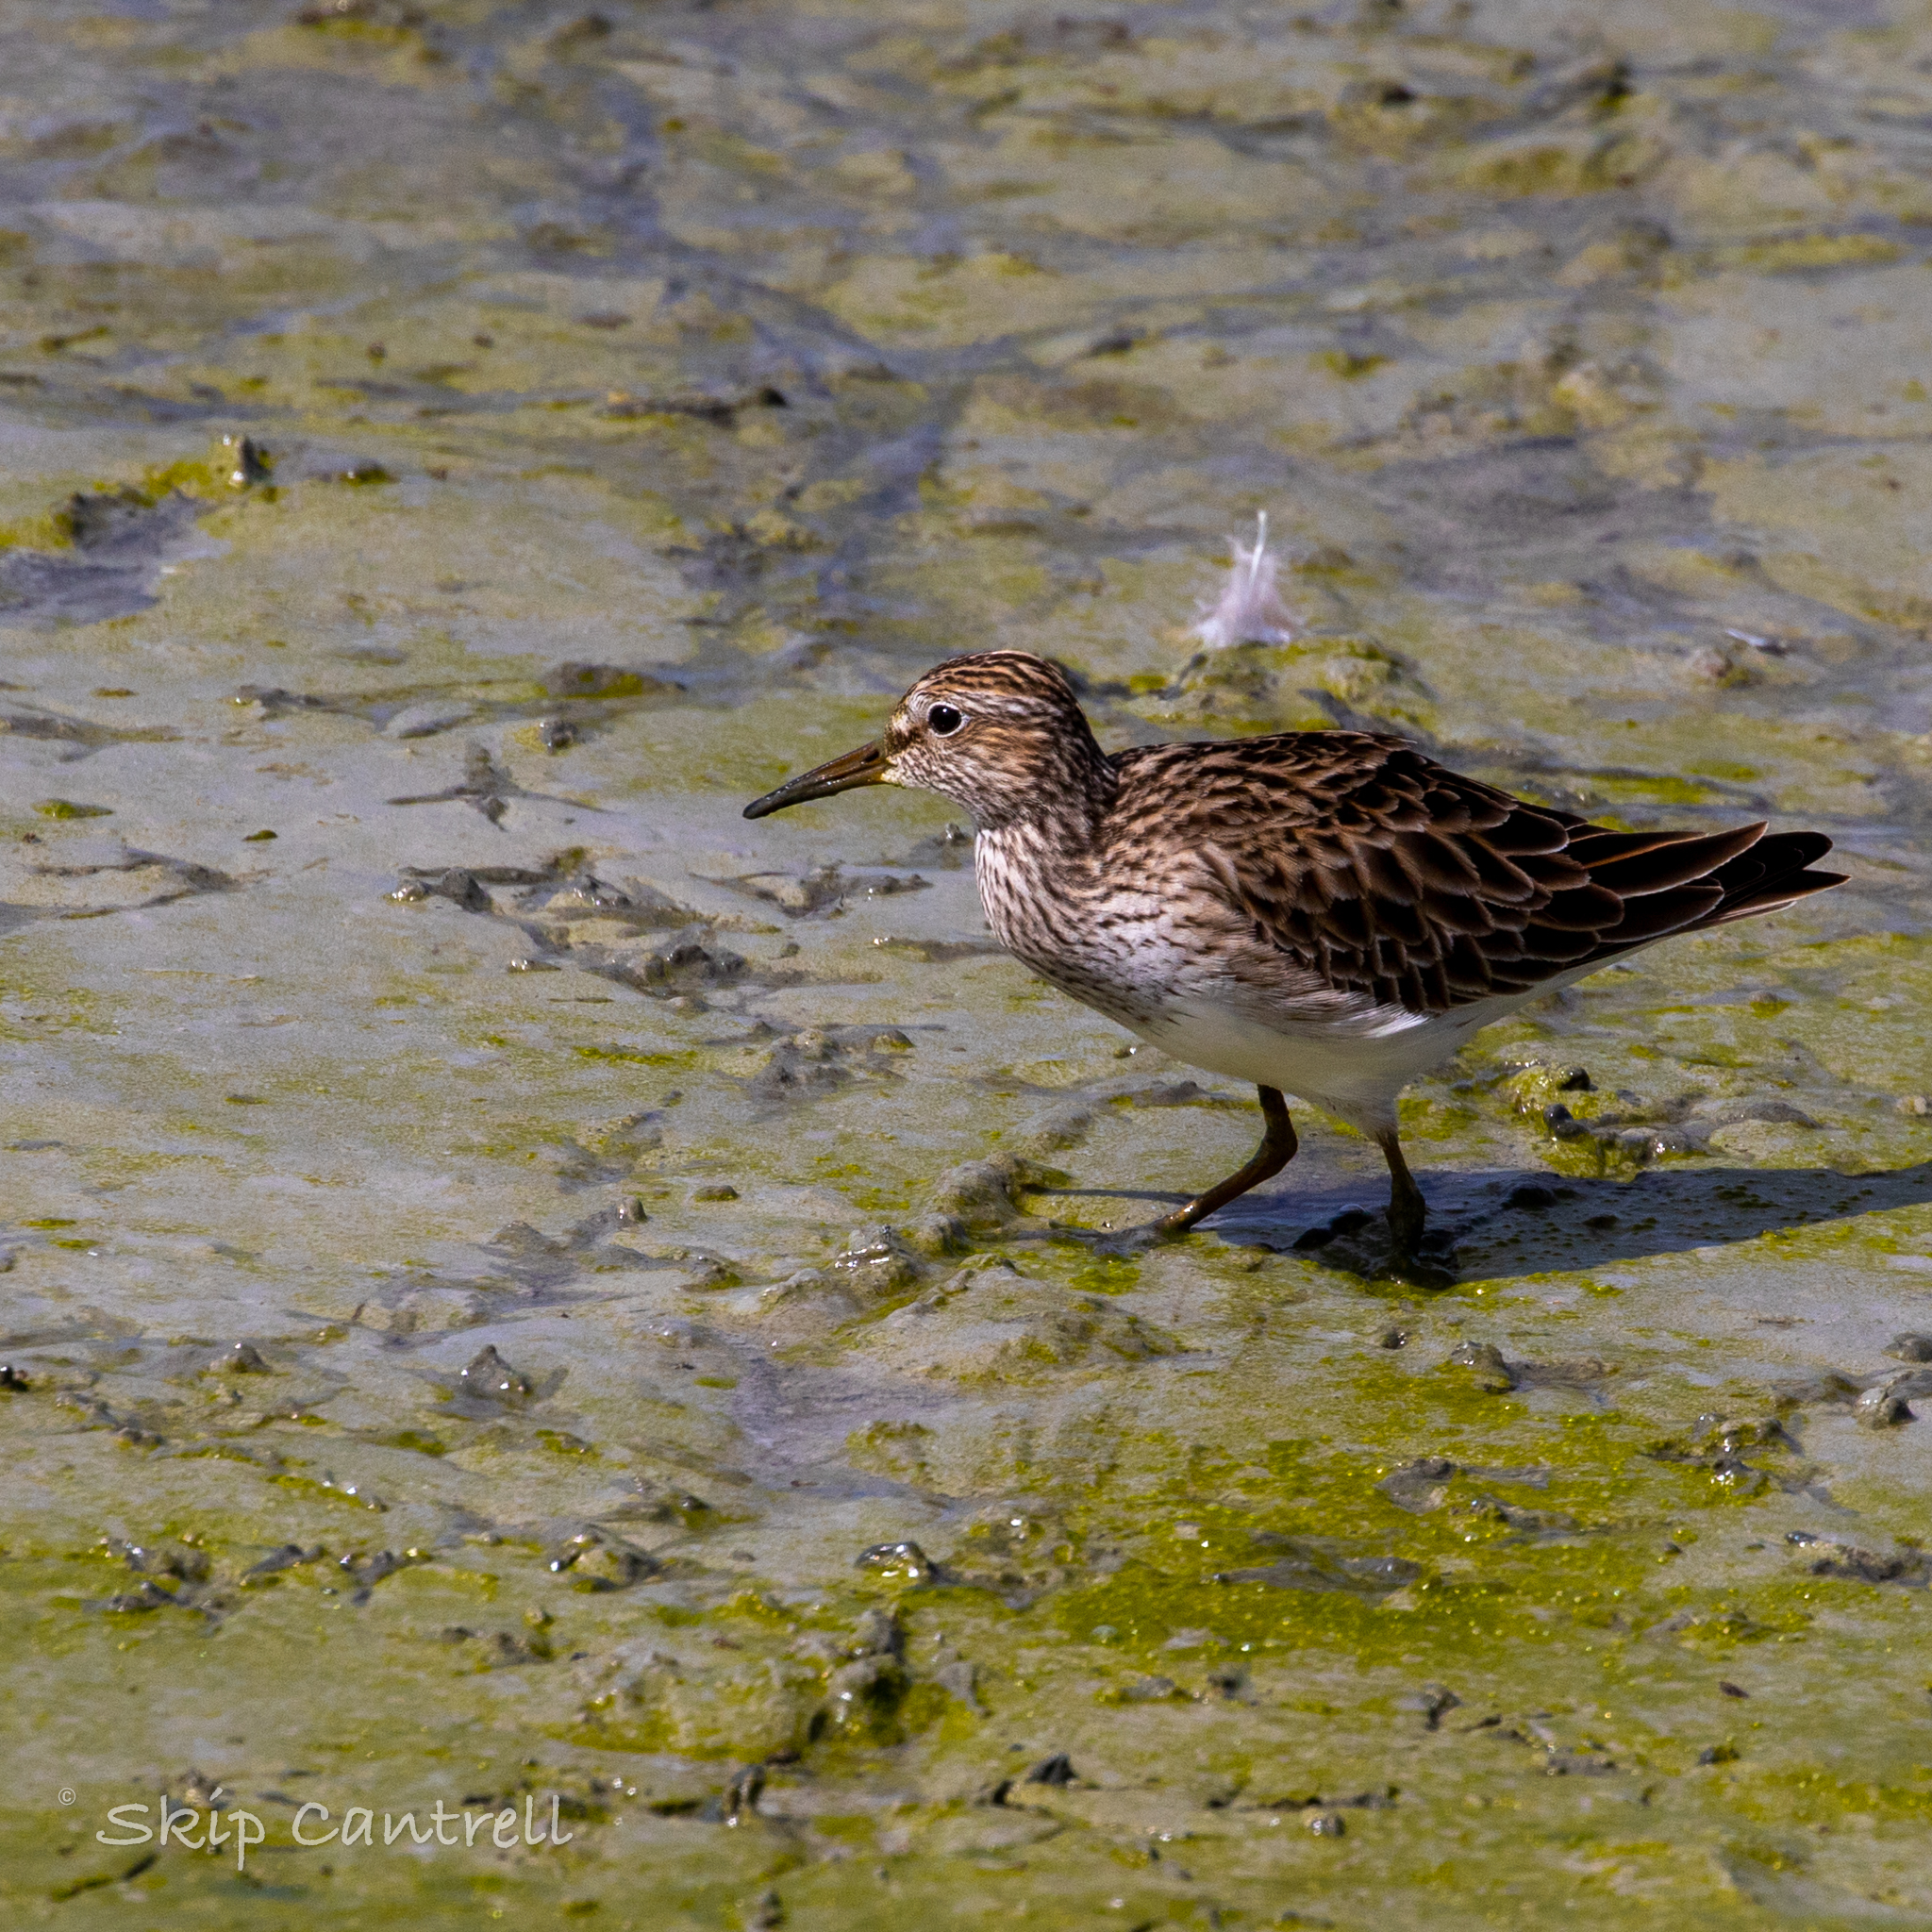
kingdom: Animalia
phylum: Chordata
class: Aves
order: Charadriiformes
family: Scolopacidae
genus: Calidris
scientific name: Calidris melanotos
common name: Pectoral sandpiper
